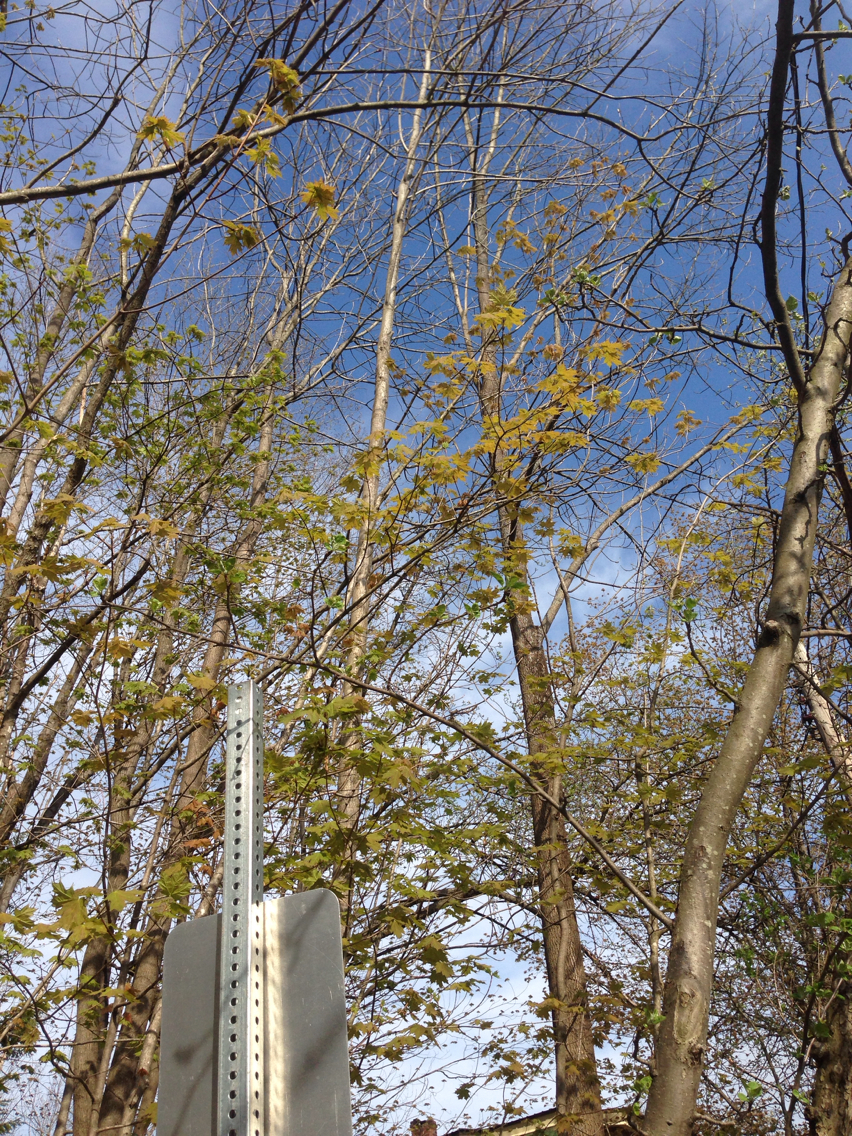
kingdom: Plantae
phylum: Tracheophyta
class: Magnoliopsida
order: Sapindales
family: Sapindaceae
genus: Acer
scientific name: Acer saccharum
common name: Sugar maple
